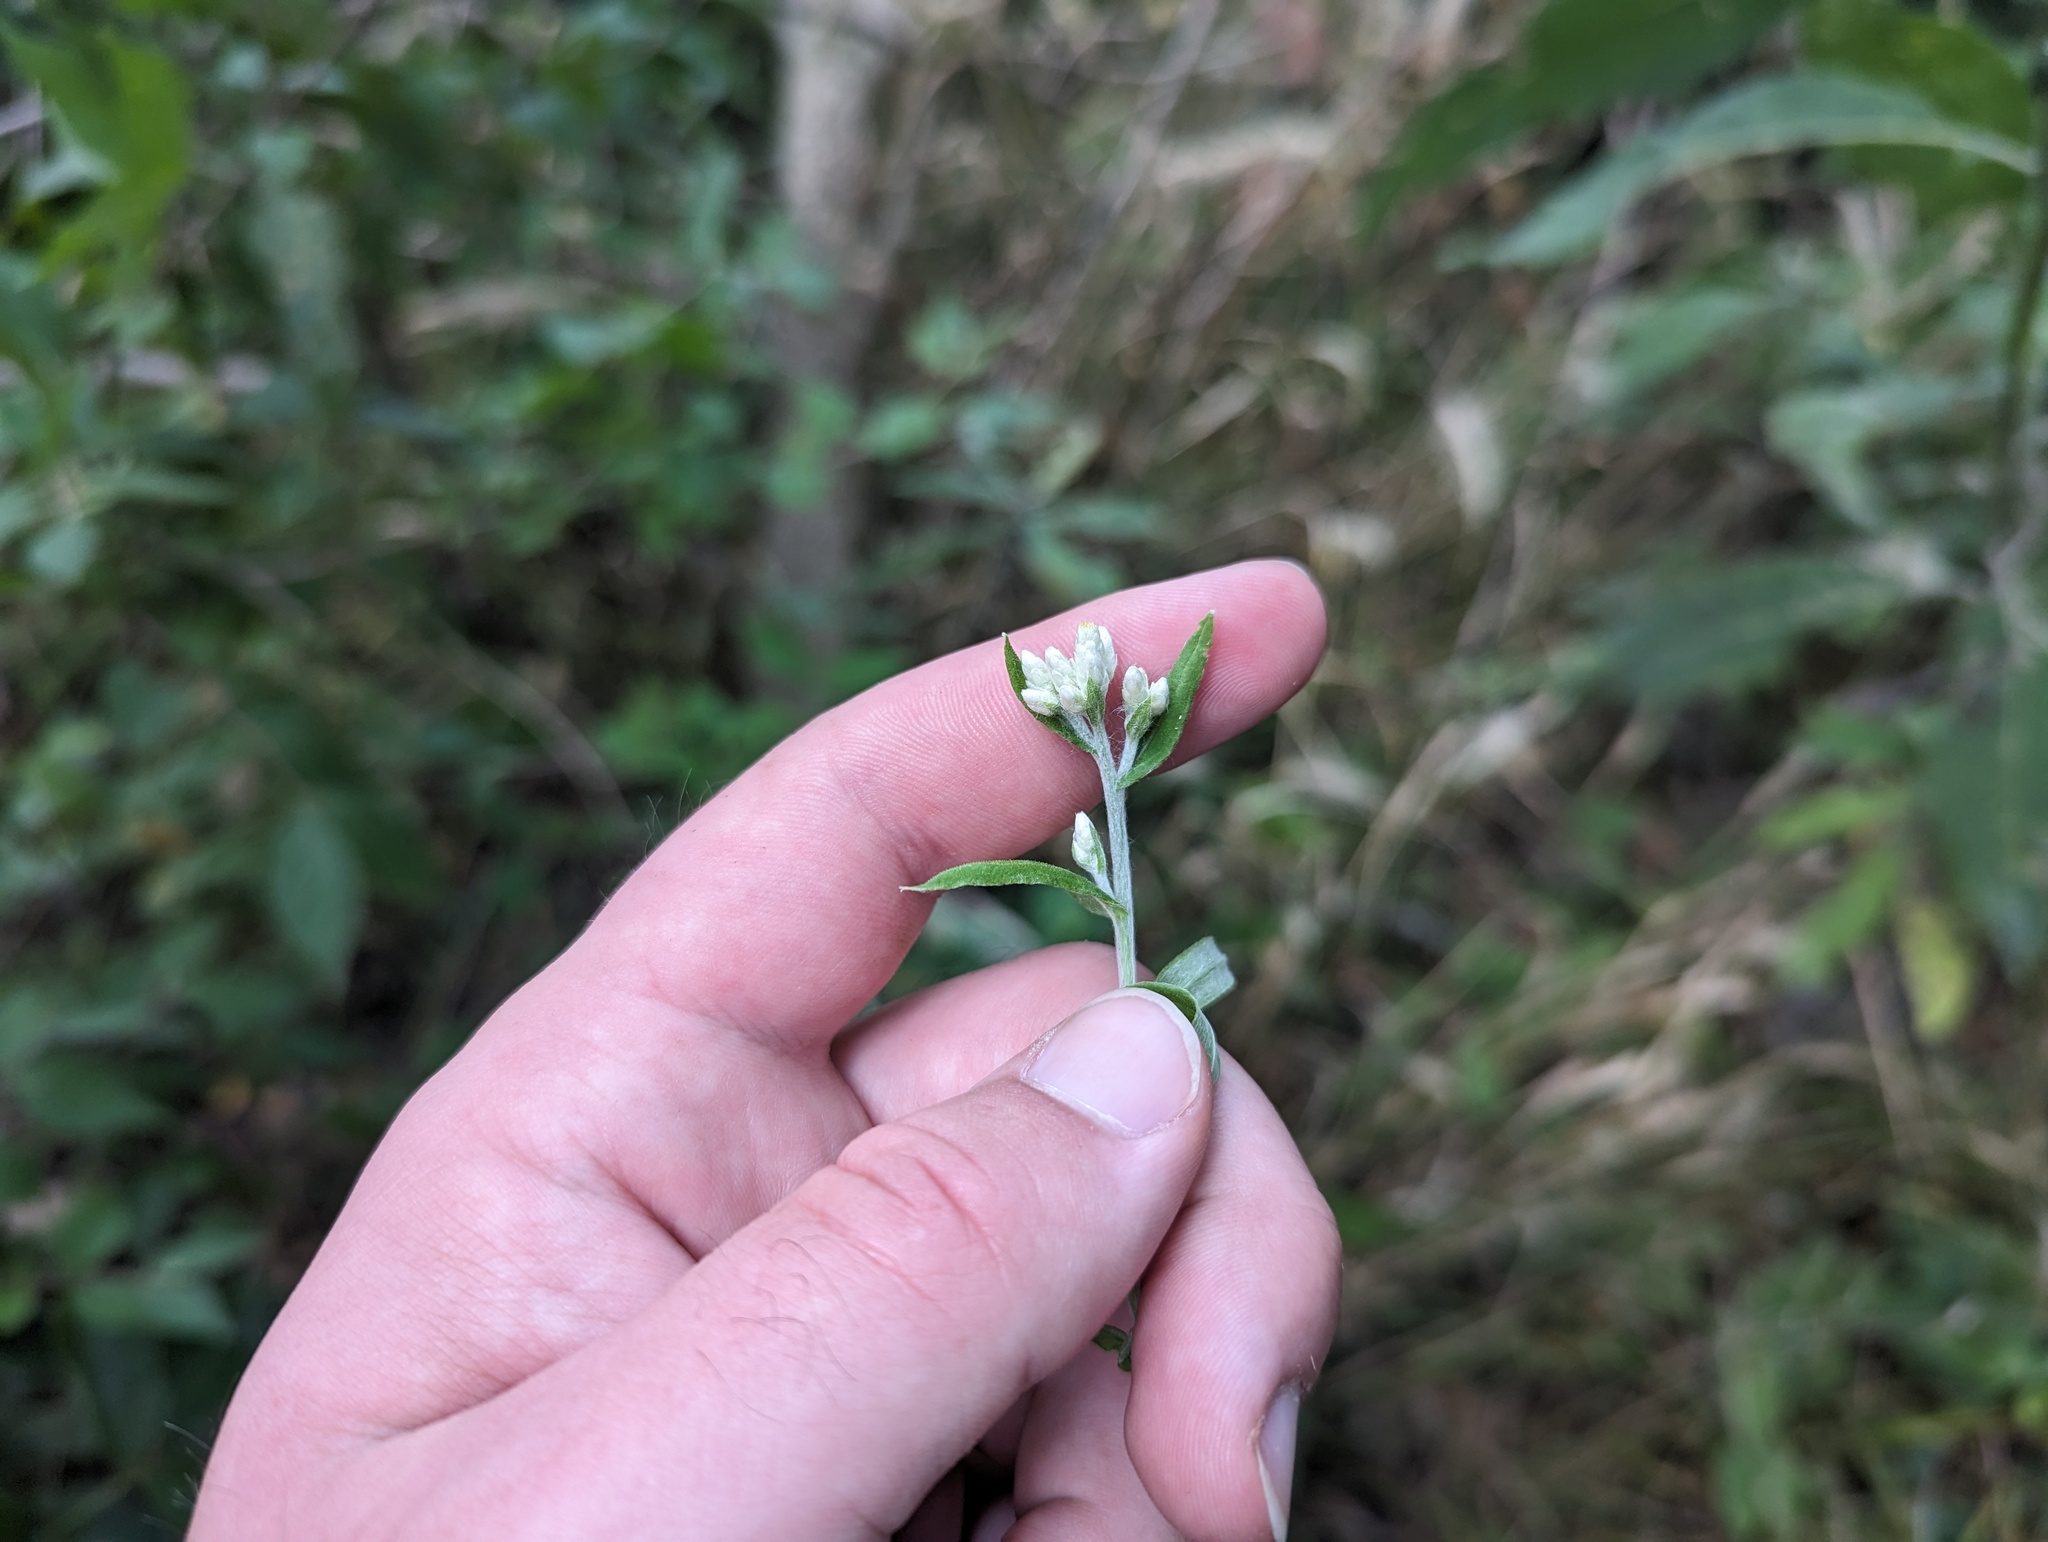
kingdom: Plantae
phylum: Tracheophyta
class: Magnoliopsida
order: Asterales
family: Asteraceae
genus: Pseudognaphalium
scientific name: Pseudognaphalium obtusifolium
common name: Eastern rabbit-tobacco
